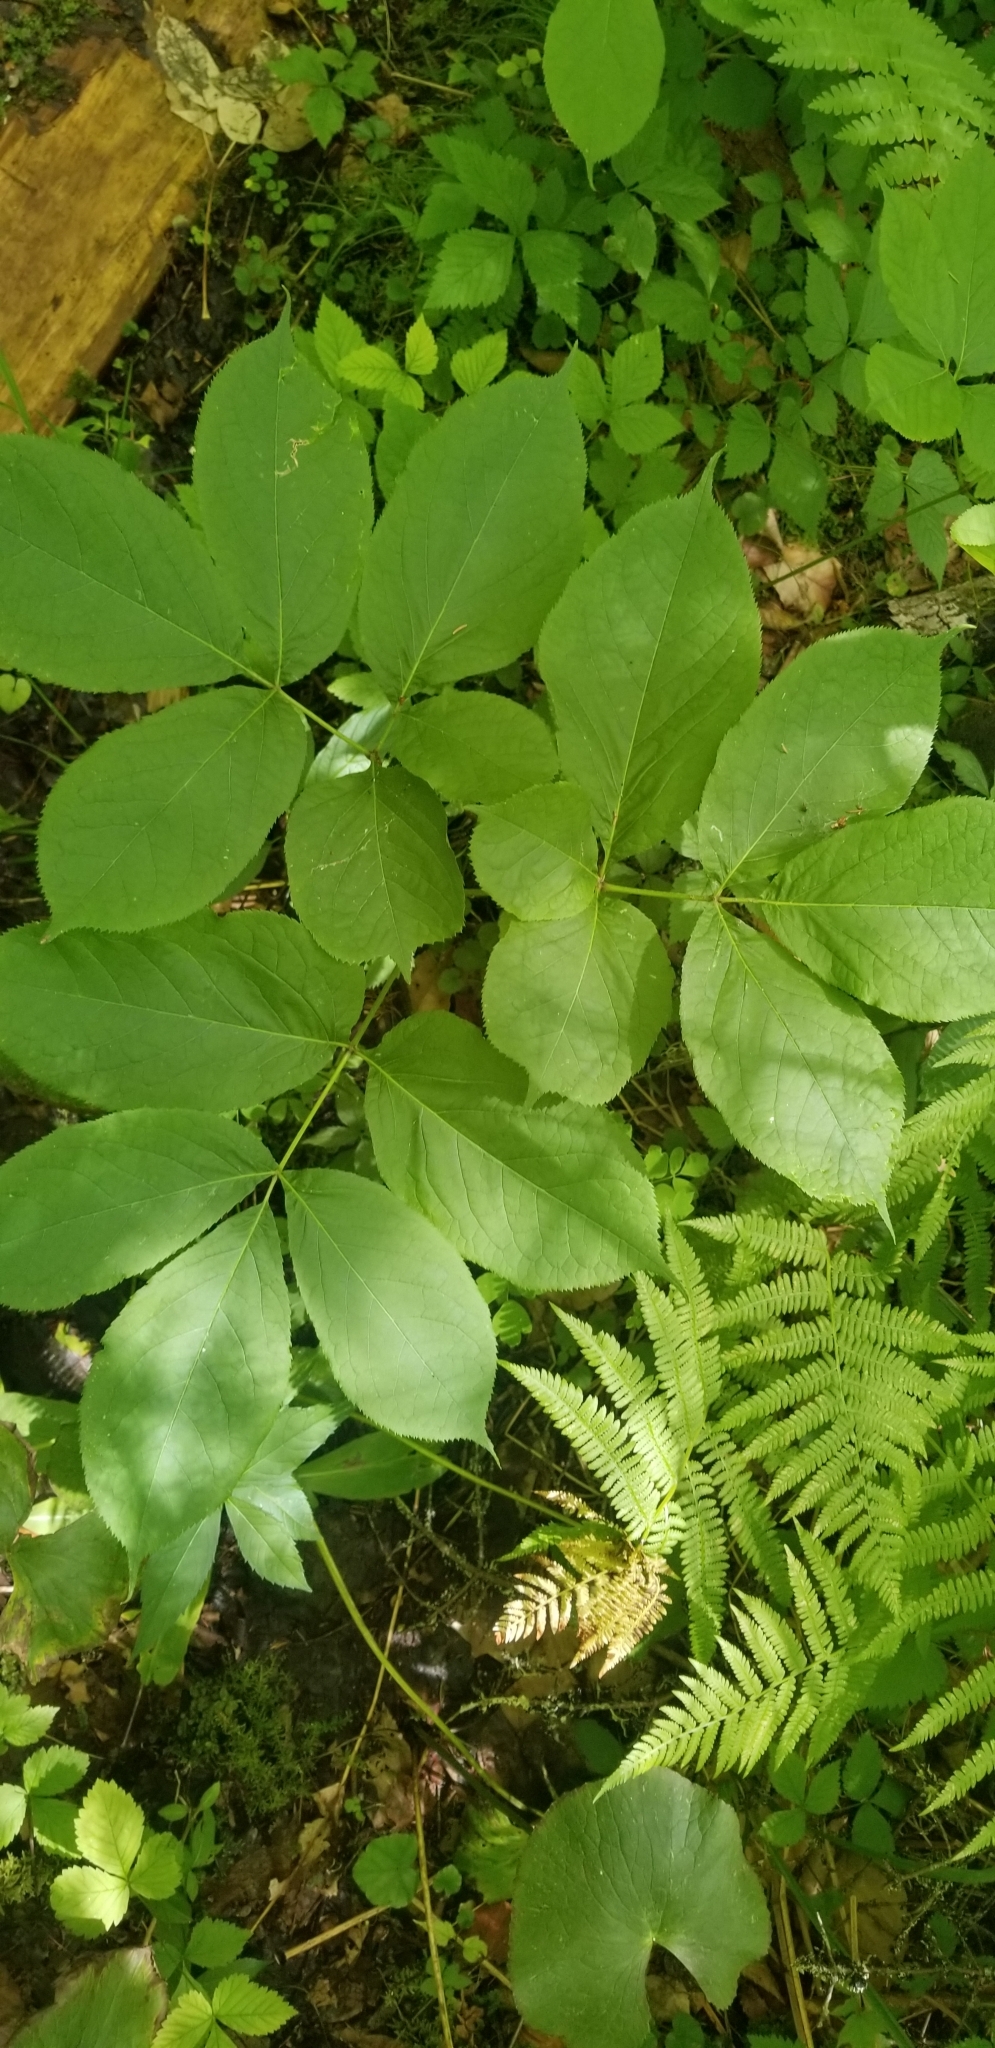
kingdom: Plantae
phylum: Tracheophyta
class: Magnoliopsida
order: Apiales
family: Araliaceae
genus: Aralia
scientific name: Aralia nudicaulis
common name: Wild sarsaparilla
